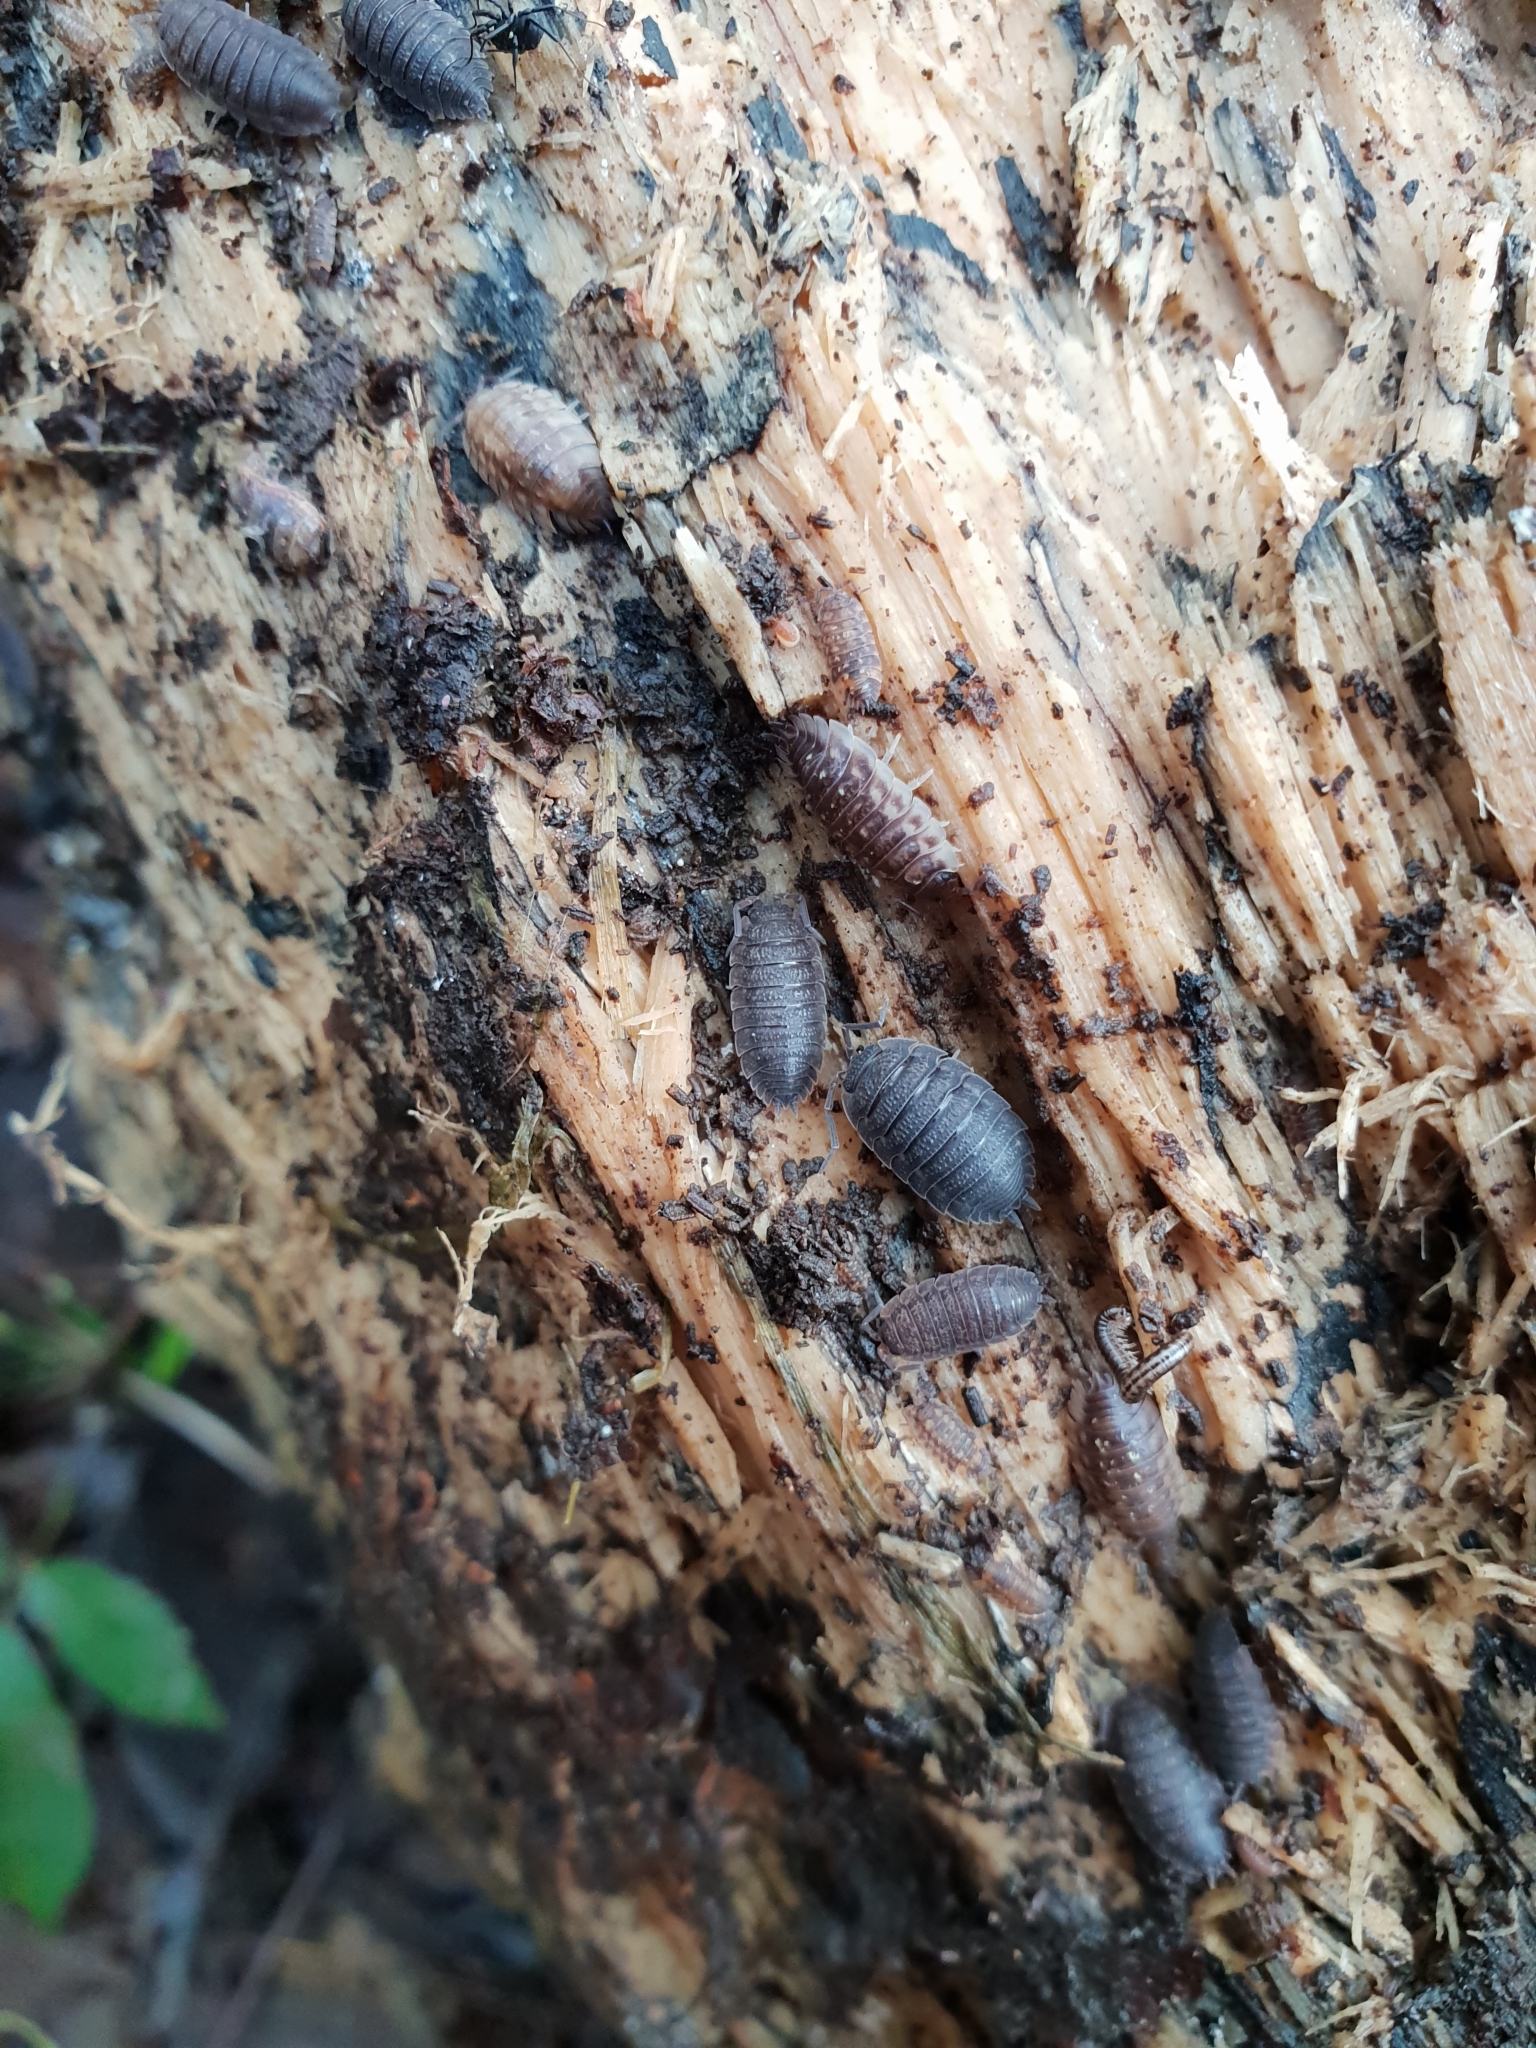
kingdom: Animalia
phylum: Arthropoda
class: Malacostraca
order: Isopoda
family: Porcellionidae
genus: Porcellio
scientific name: Porcellio scaber
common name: Common rough woodlouse
